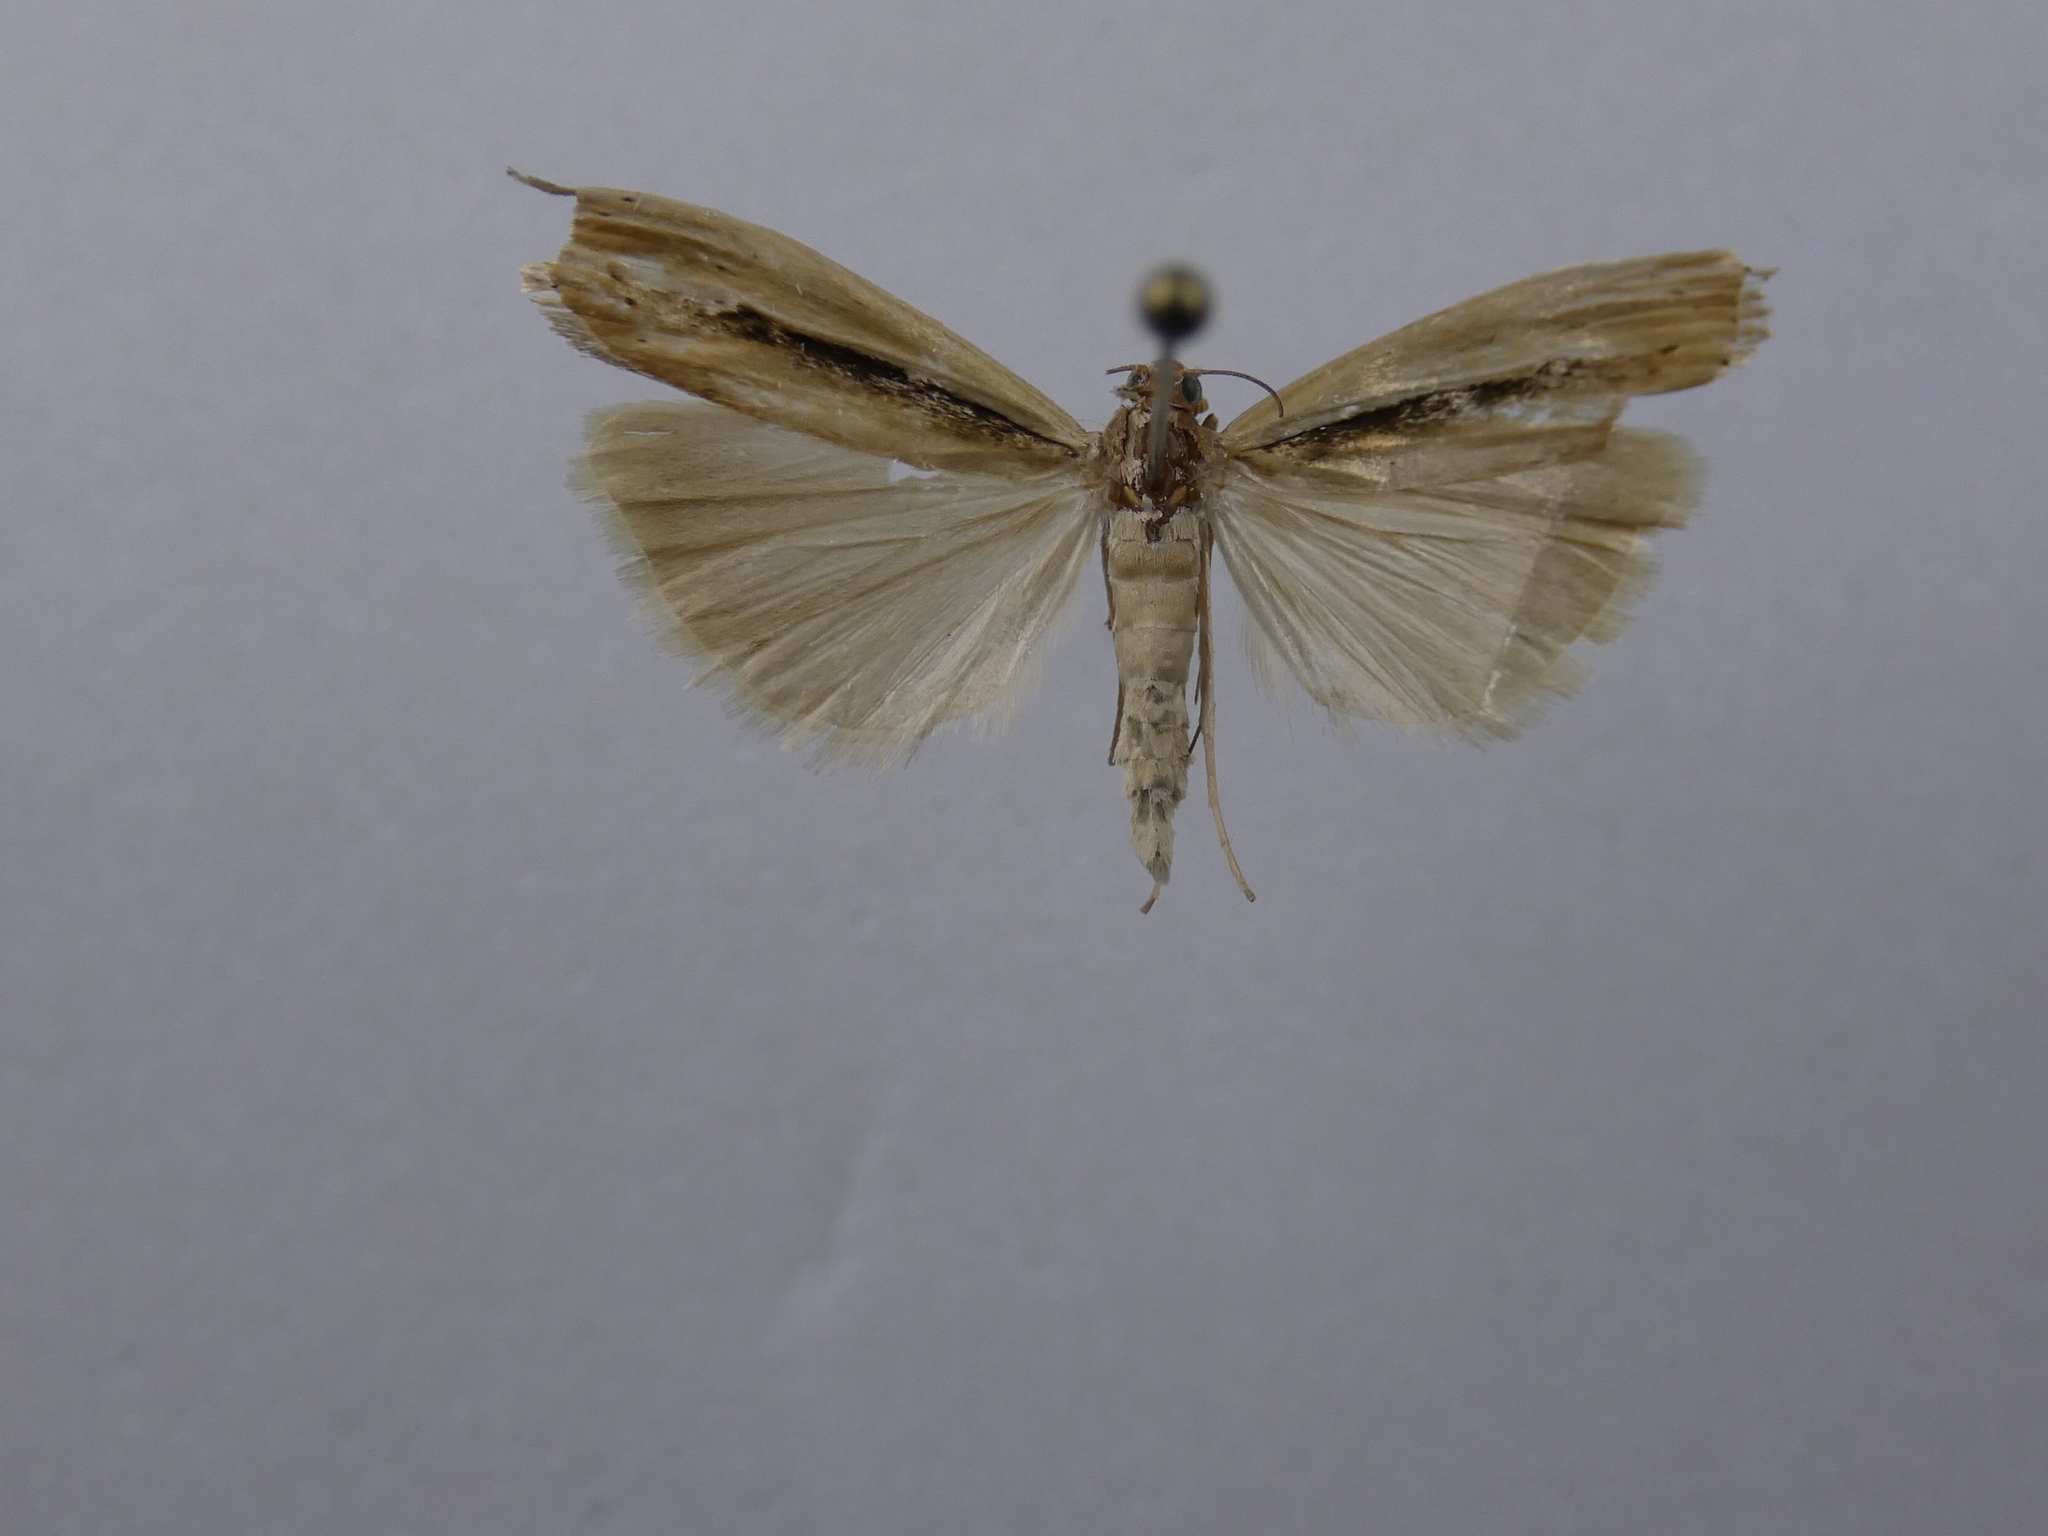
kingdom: Animalia
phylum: Arthropoda
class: Insecta
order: Lepidoptera
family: Crambidae
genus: Orocrambus
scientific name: Orocrambus ramosellus
